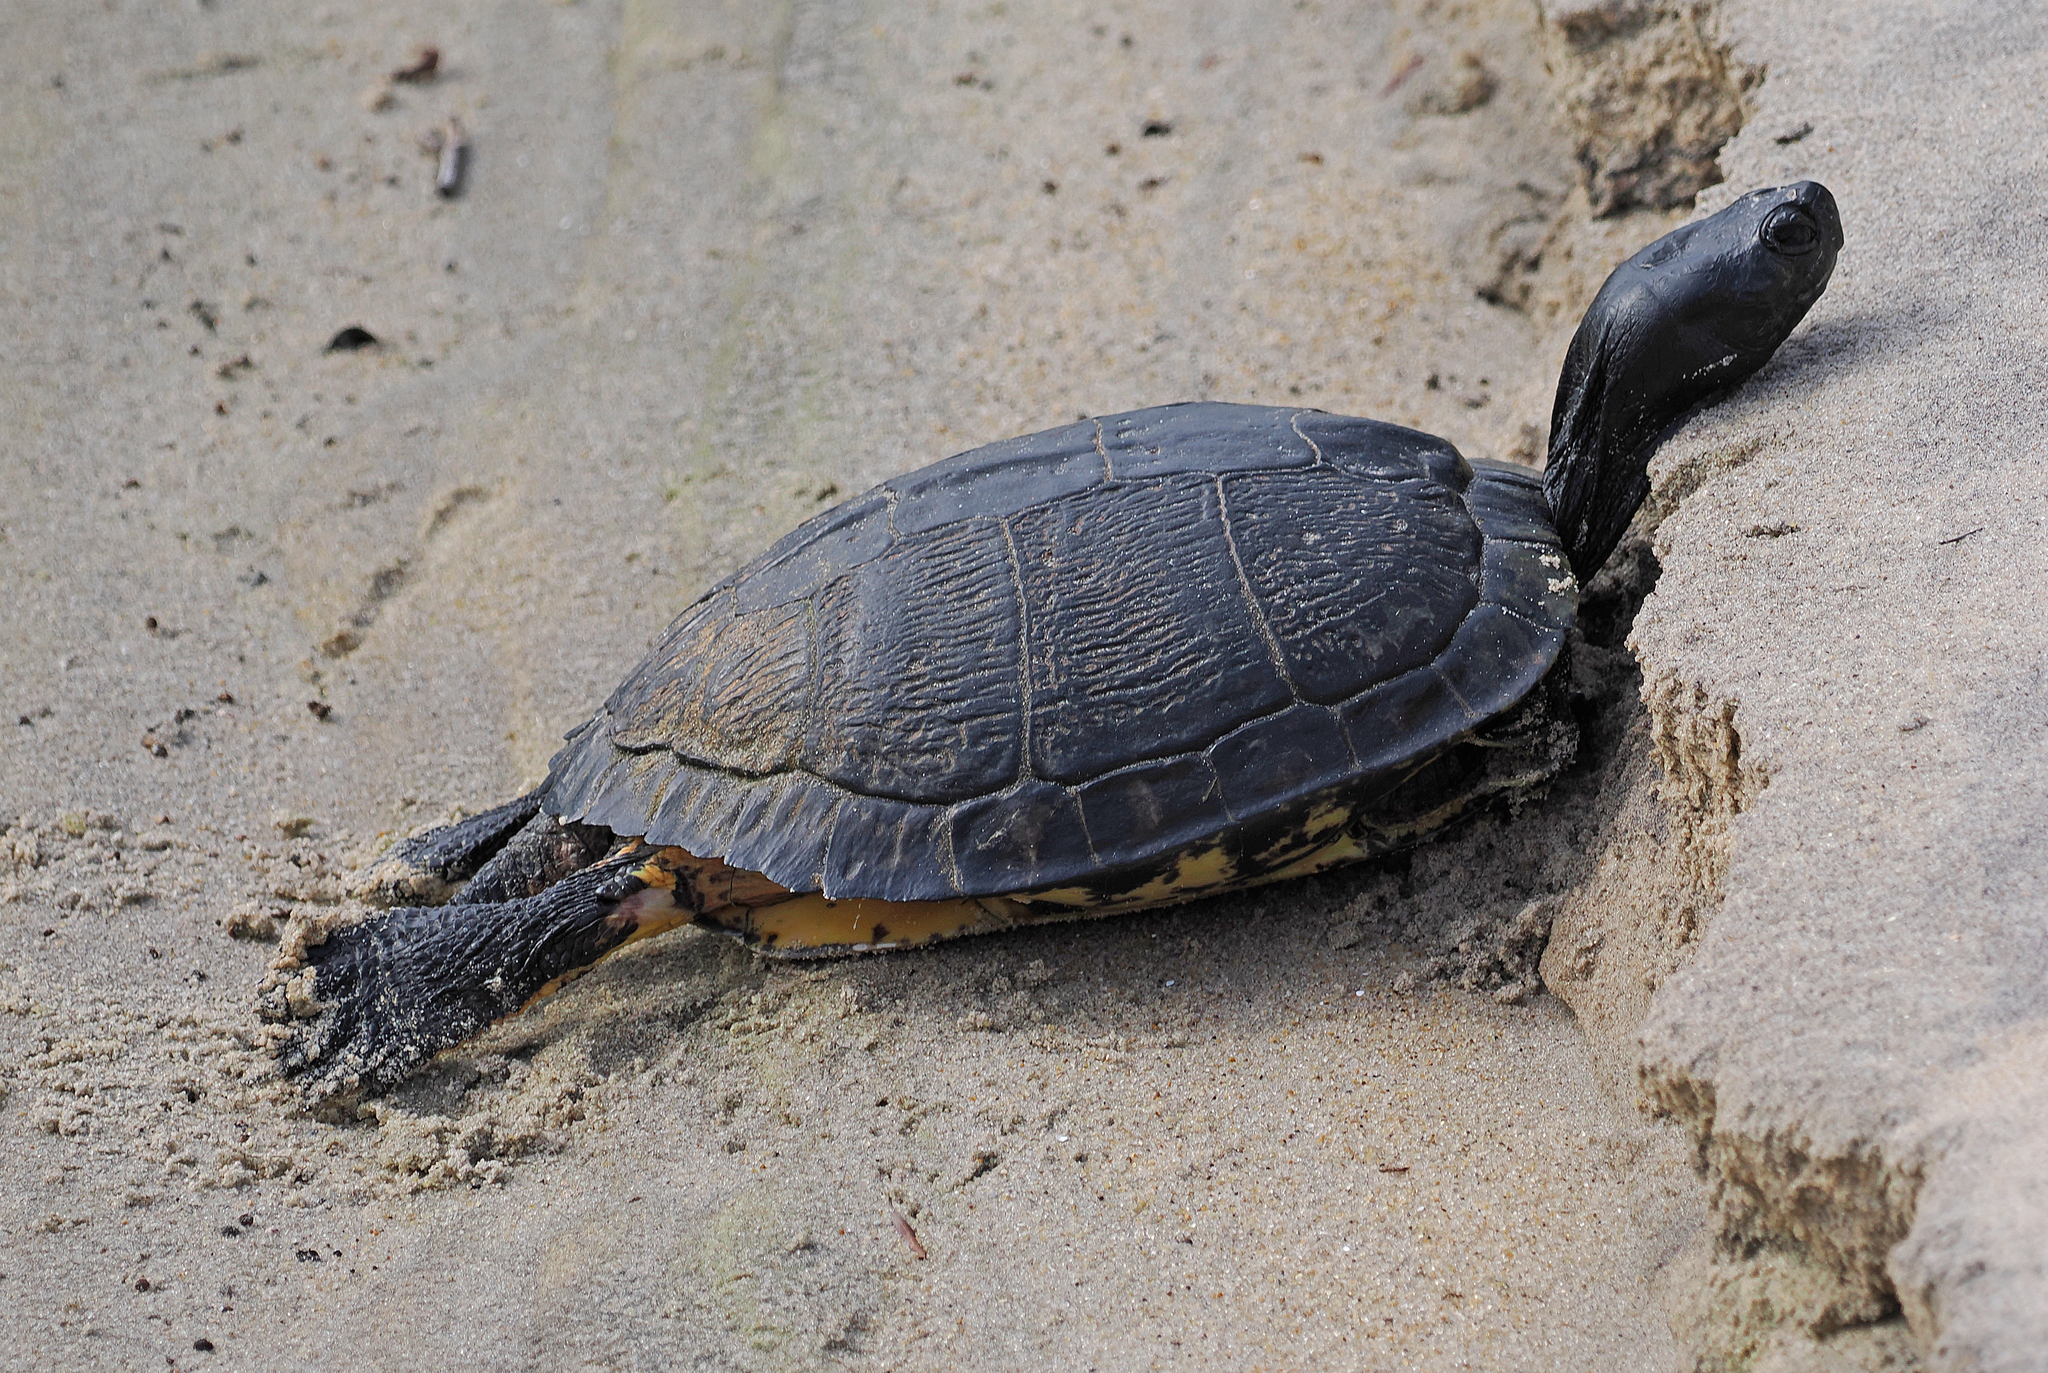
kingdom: Animalia
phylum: Chordata
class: Testudines
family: Emydidae
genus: Trachemys
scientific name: Trachemys scripta
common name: Slider
